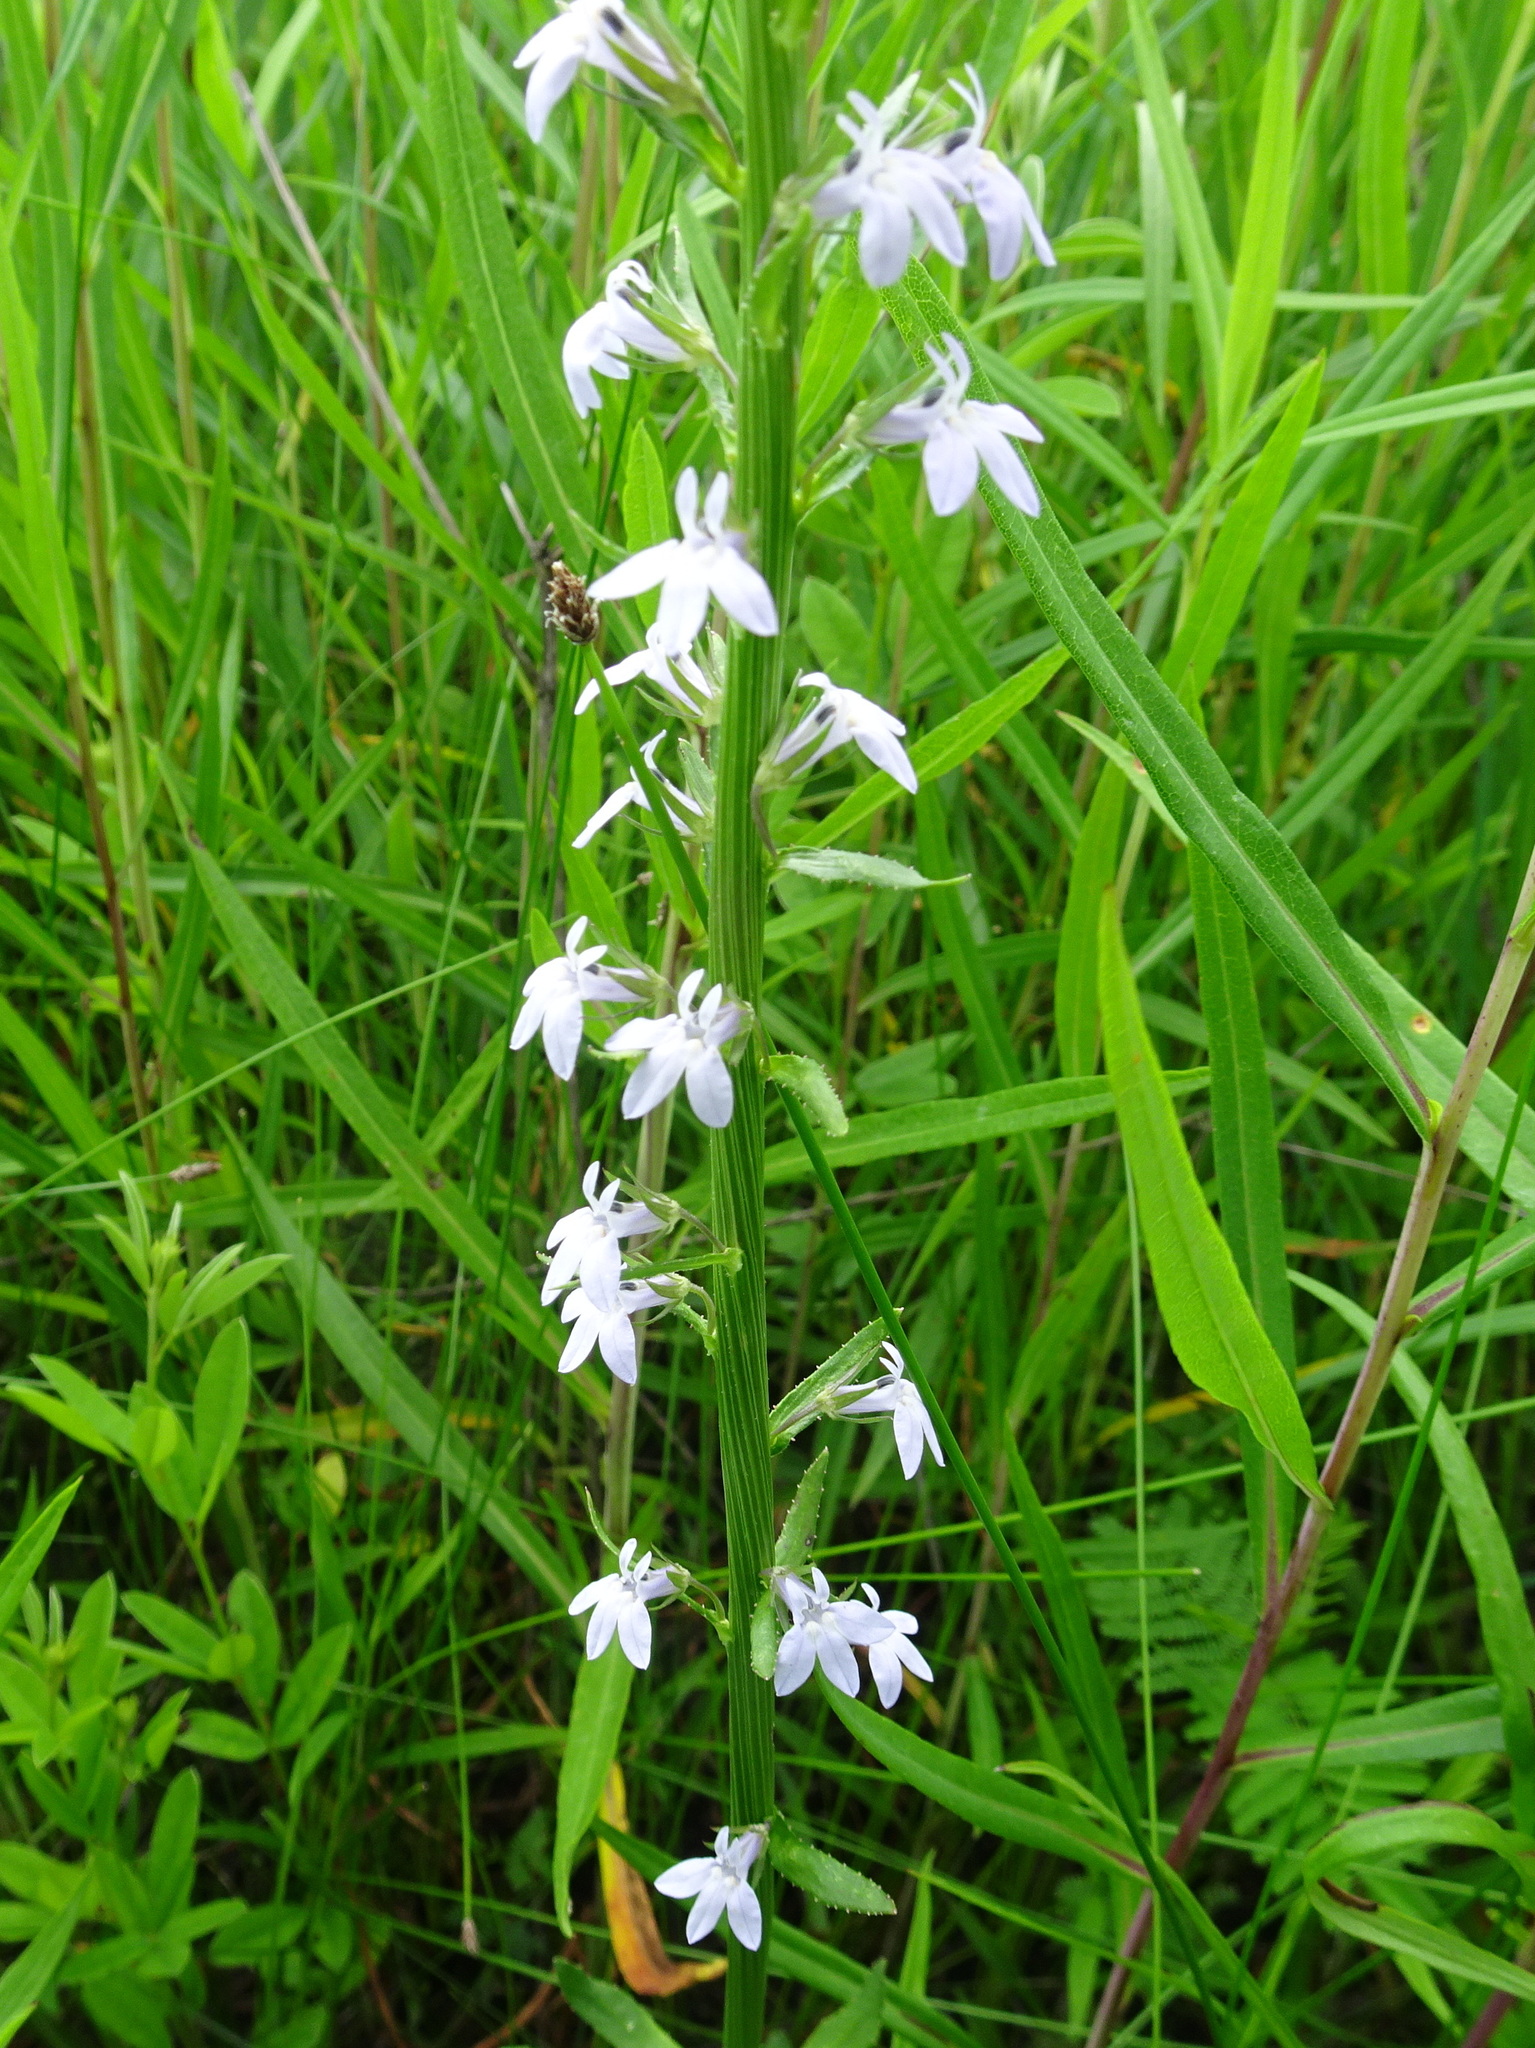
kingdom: Plantae
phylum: Tracheophyta
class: Magnoliopsida
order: Asterales
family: Campanulaceae
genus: Lobelia
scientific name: Lobelia spicata
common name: Pale-spike lobelia
